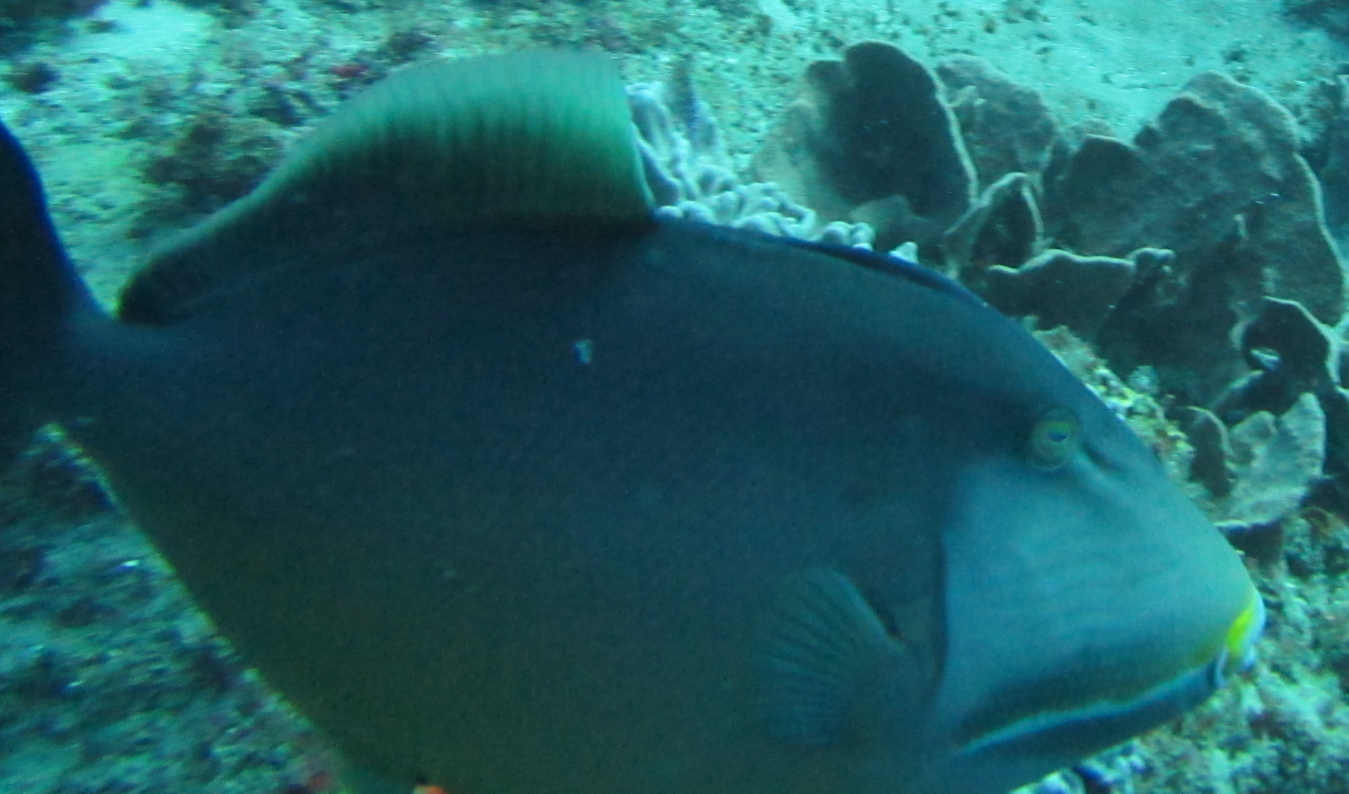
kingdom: Animalia
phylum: Chordata
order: Tetraodontiformes
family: Balistidae
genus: Sufflamen
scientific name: Sufflamen fraenatum
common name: Bridle triggerfish
